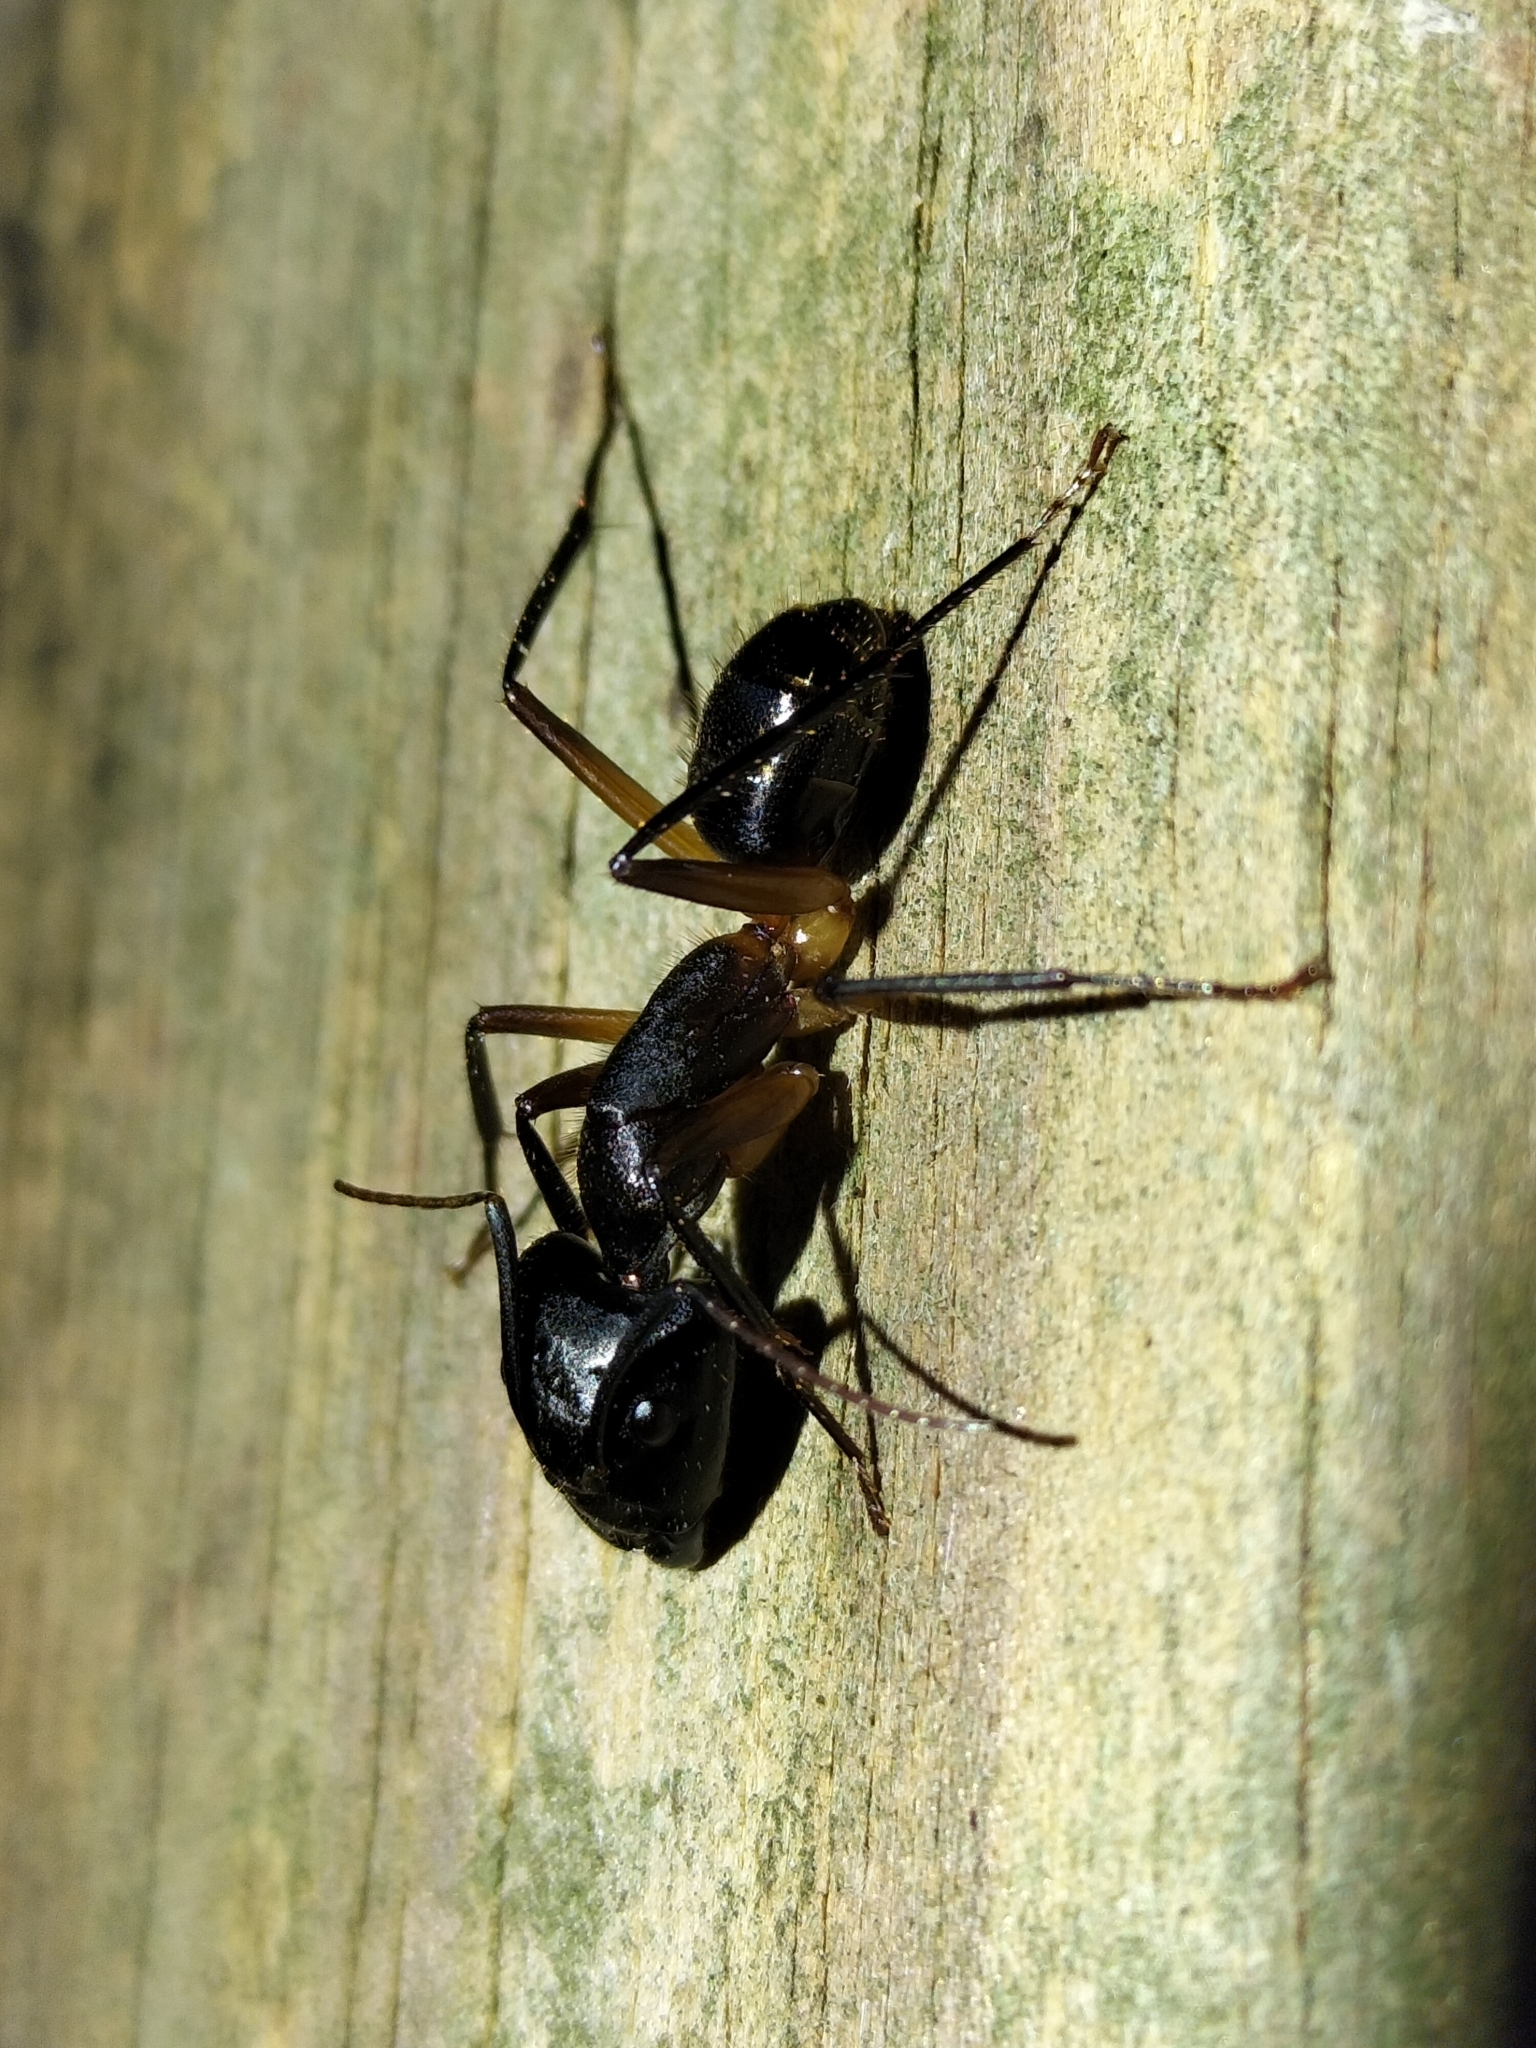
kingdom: Animalia
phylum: Arthropoda
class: Insecta
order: Hymenoptera
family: Formicidae
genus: Camponotus
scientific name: Camponotus
